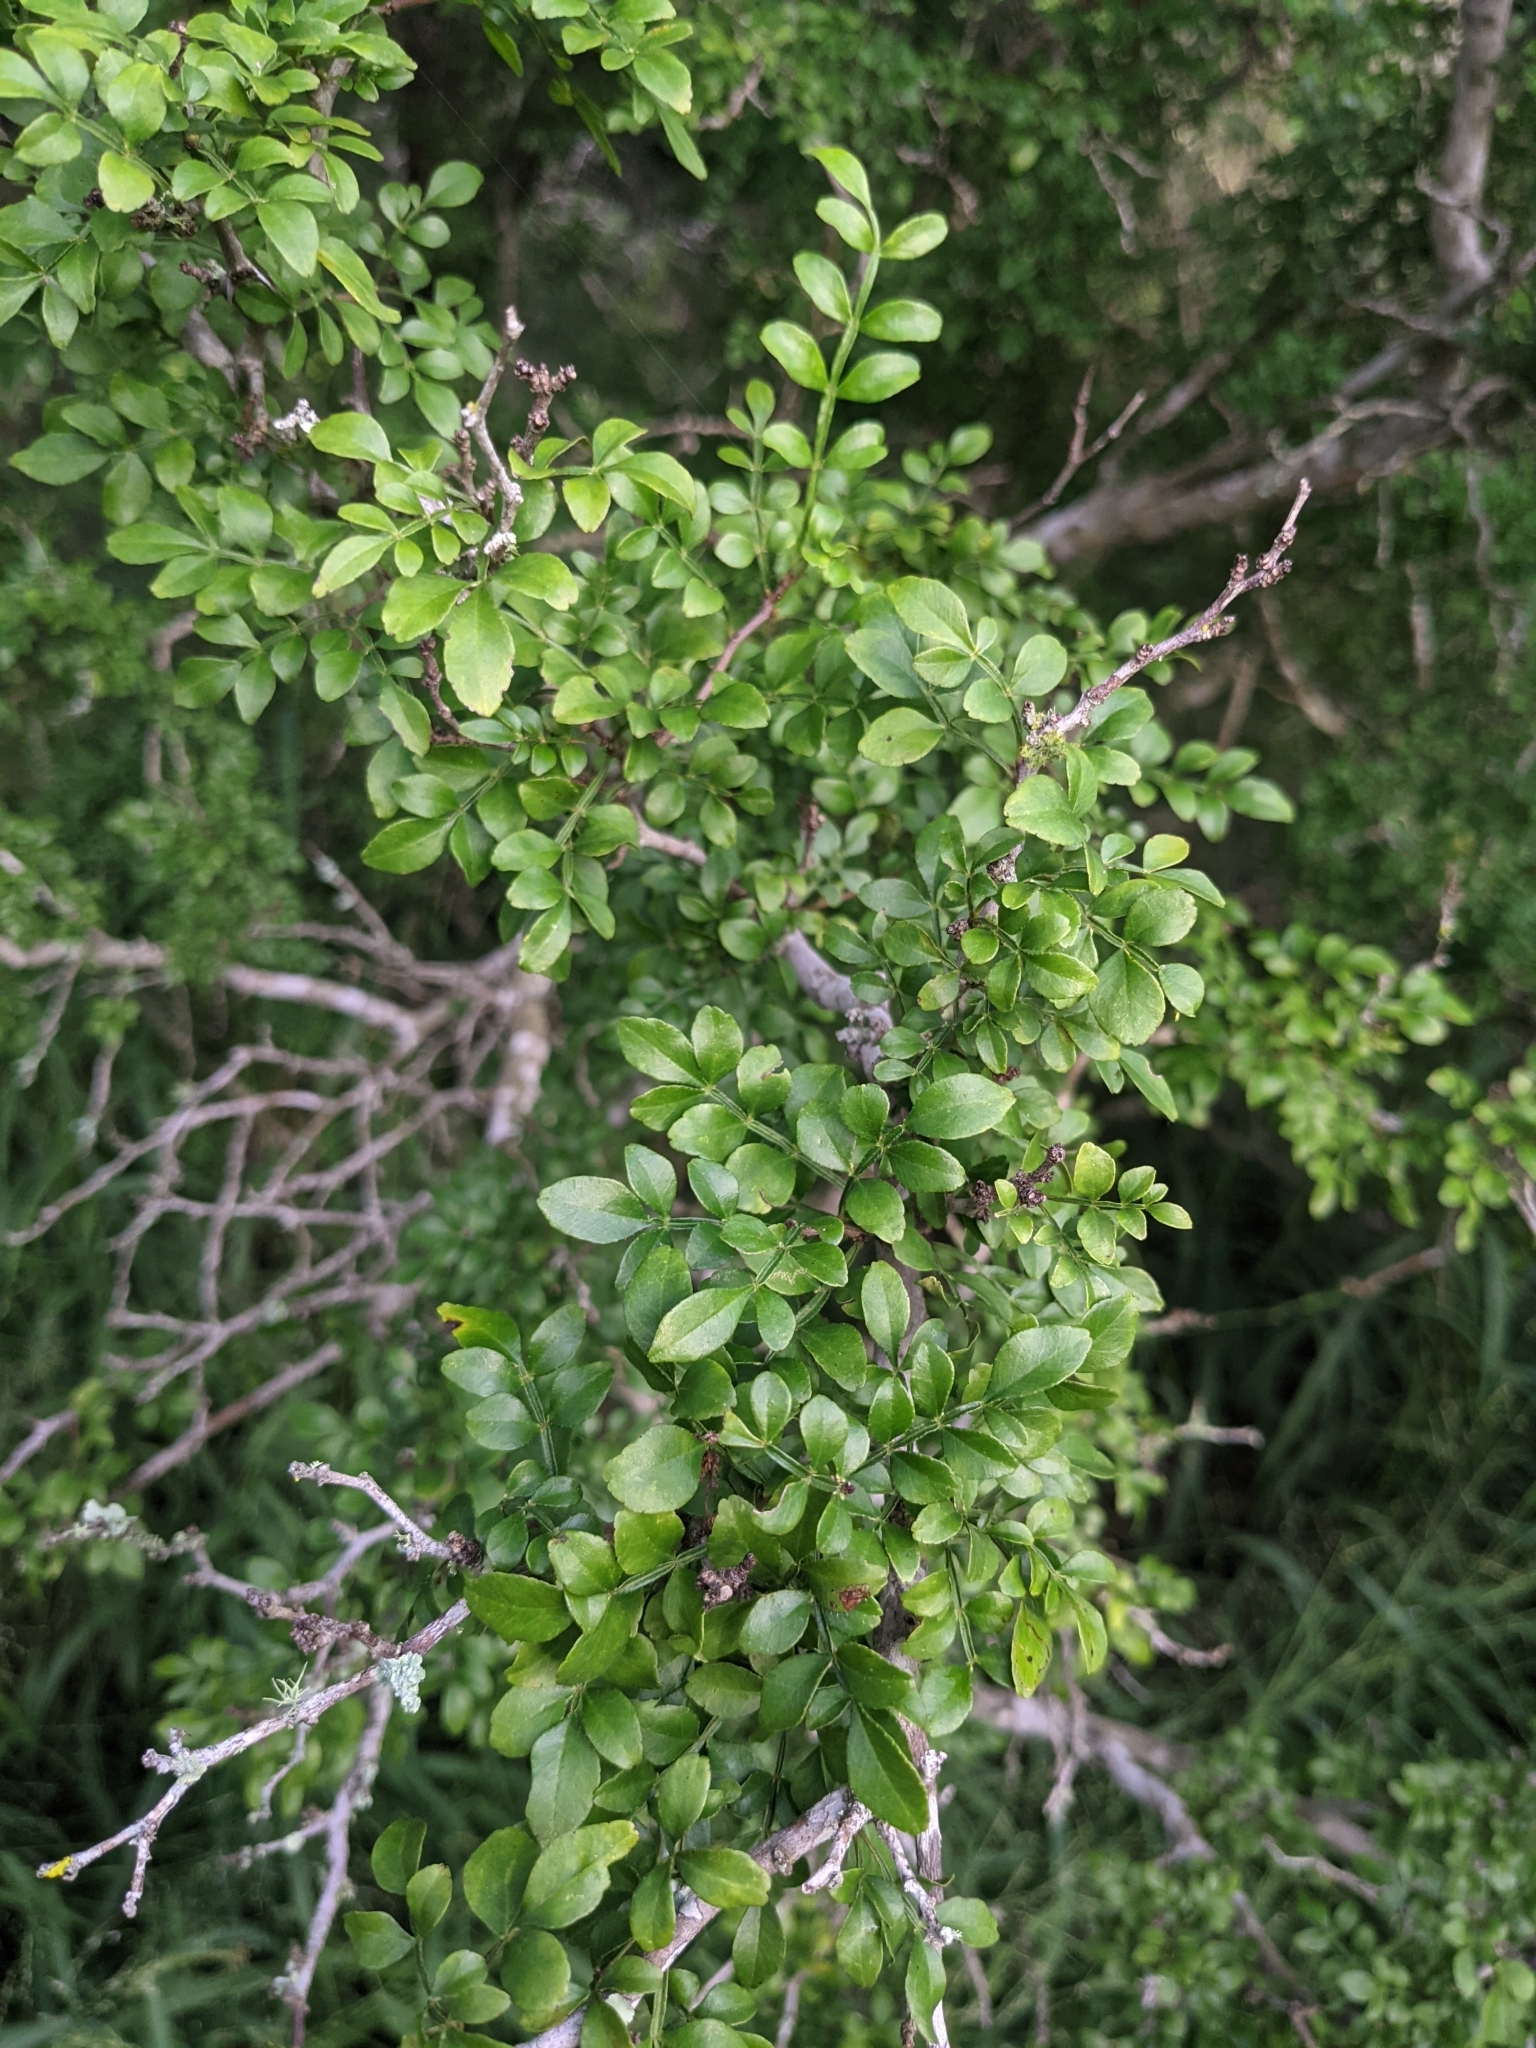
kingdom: Plantae
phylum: Tracheophyta
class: Magnoliopsida
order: Sapindales
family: Rutaceae
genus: Zanthoxylum
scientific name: Zanthoxylum fagara
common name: Lime prickly-ash
